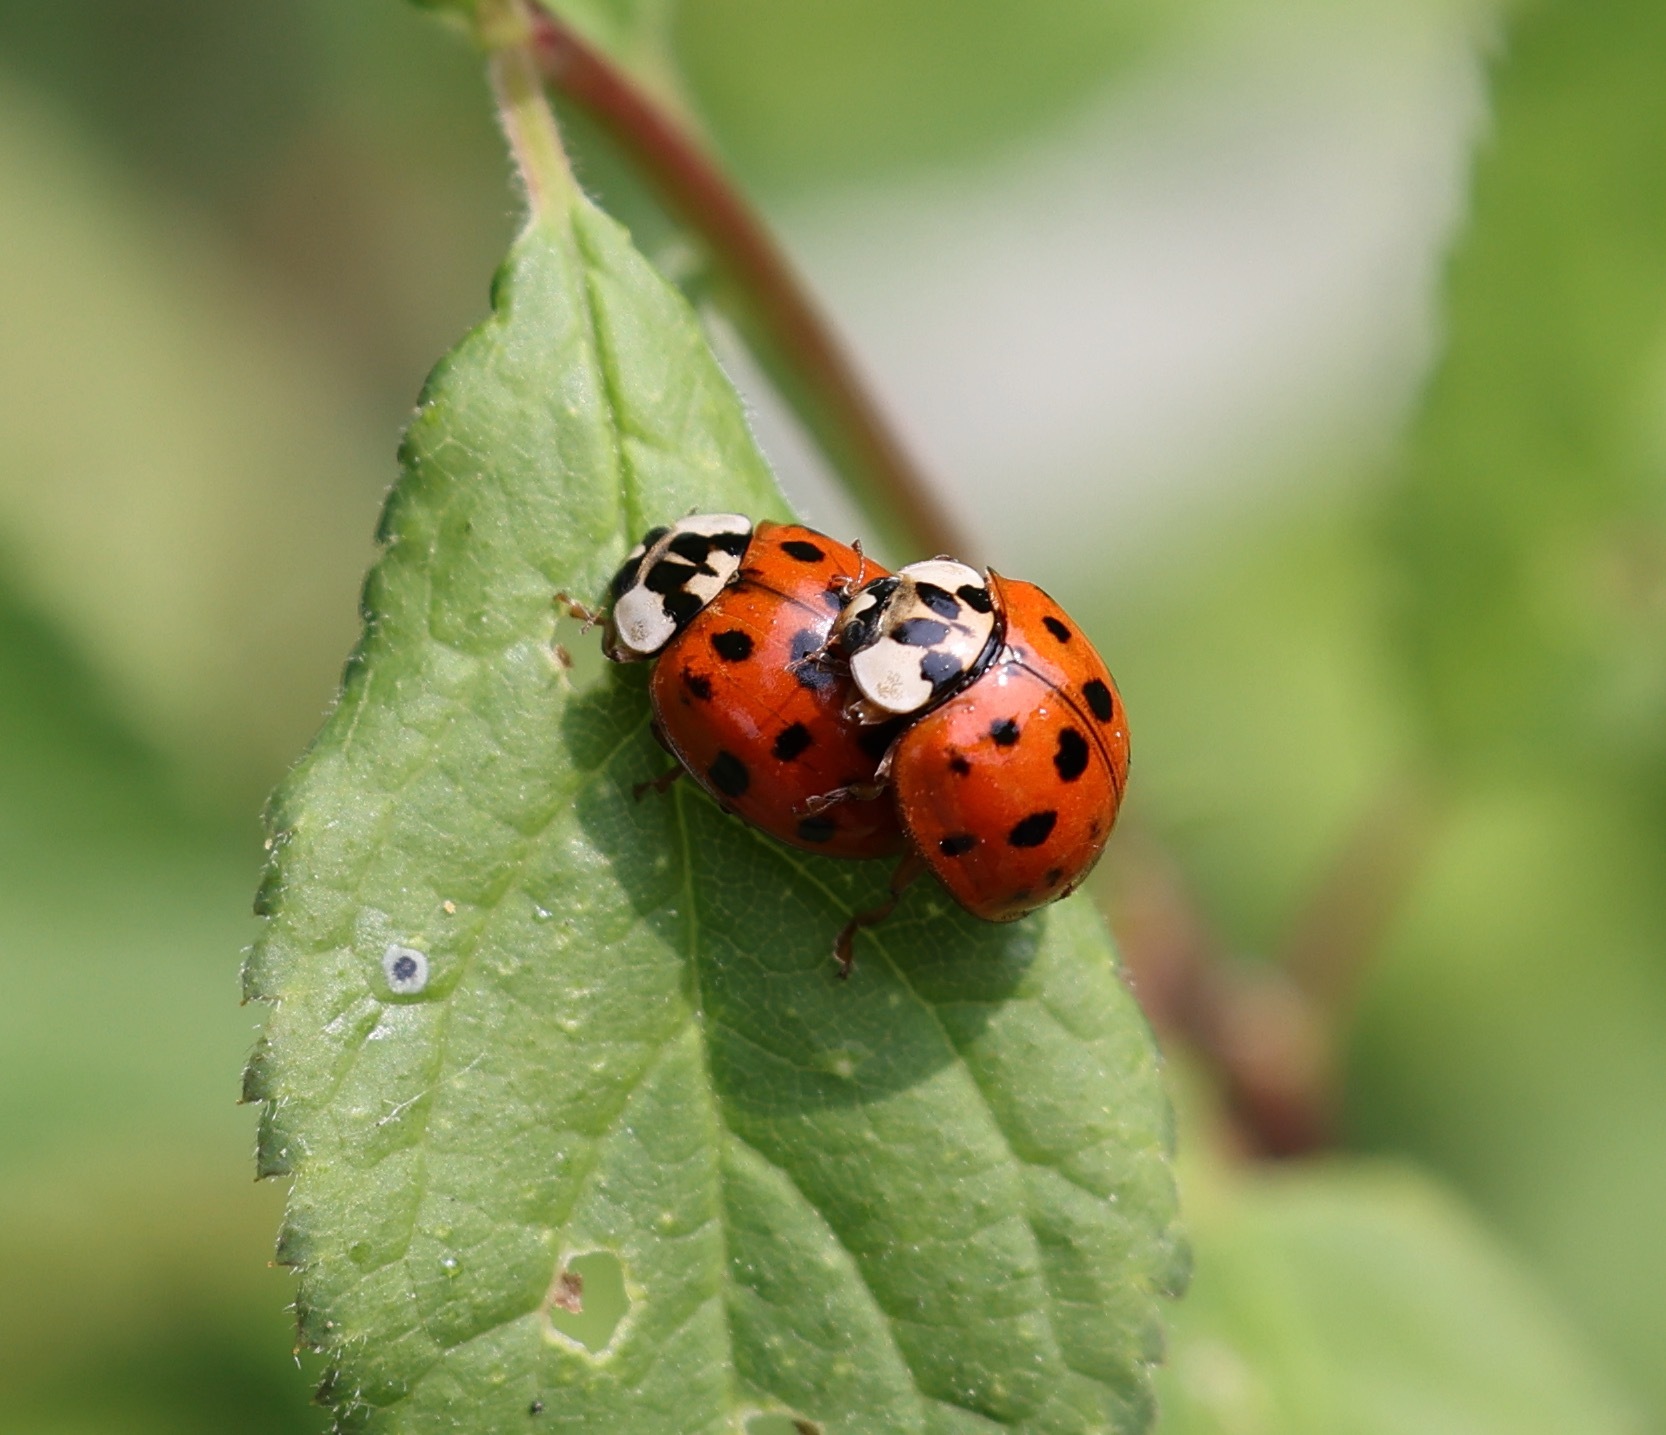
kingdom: Animalia
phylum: Arthropoda
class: Insecta
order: Coleoptera
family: Coccinellidae
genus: Harmonia
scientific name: Harmonia axyridis
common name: Harlequin ladybird
